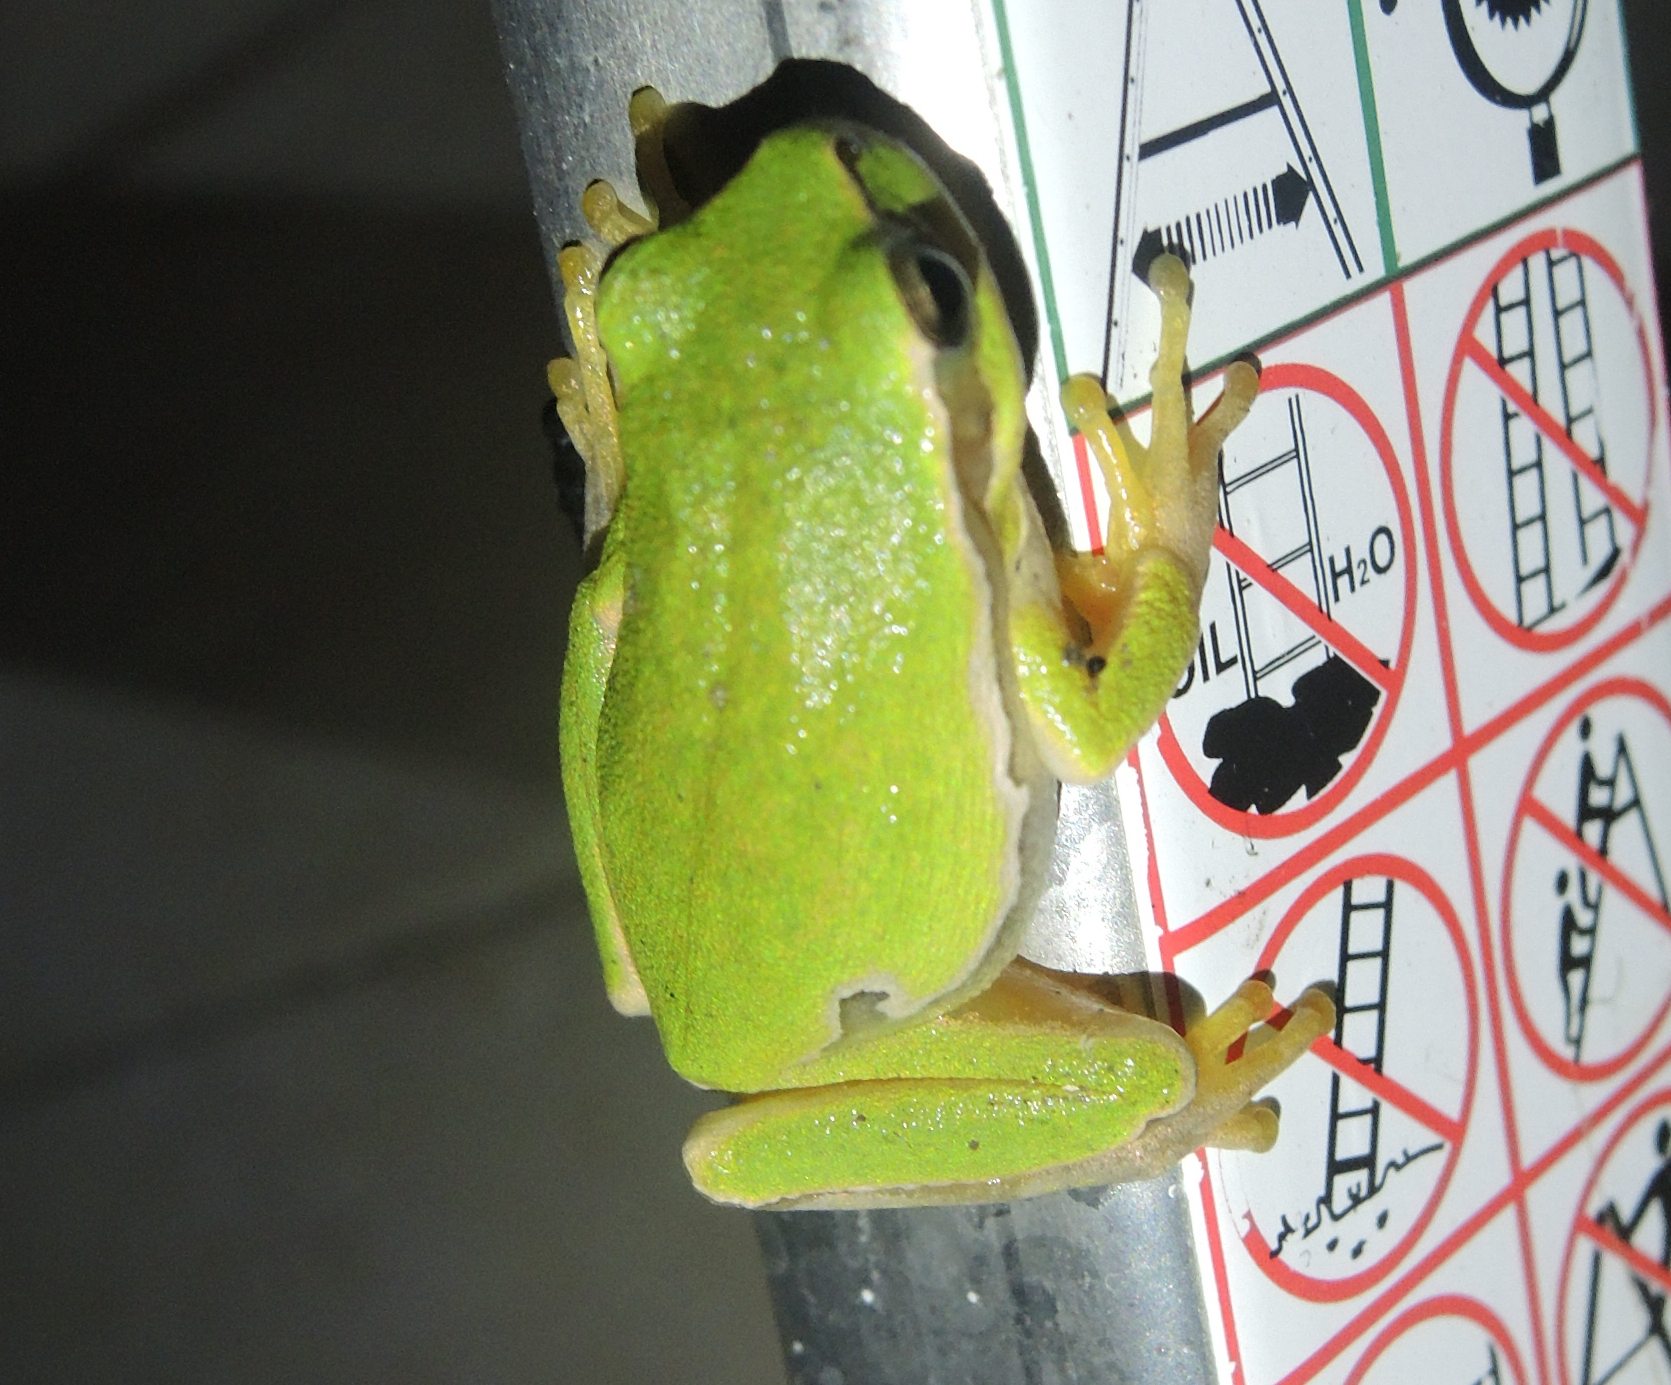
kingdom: Animalia
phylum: Chordata
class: Amphibia
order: Anura
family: Hylidae
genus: Hyla
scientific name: Hyla orientalis
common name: Caucasian treefrog
